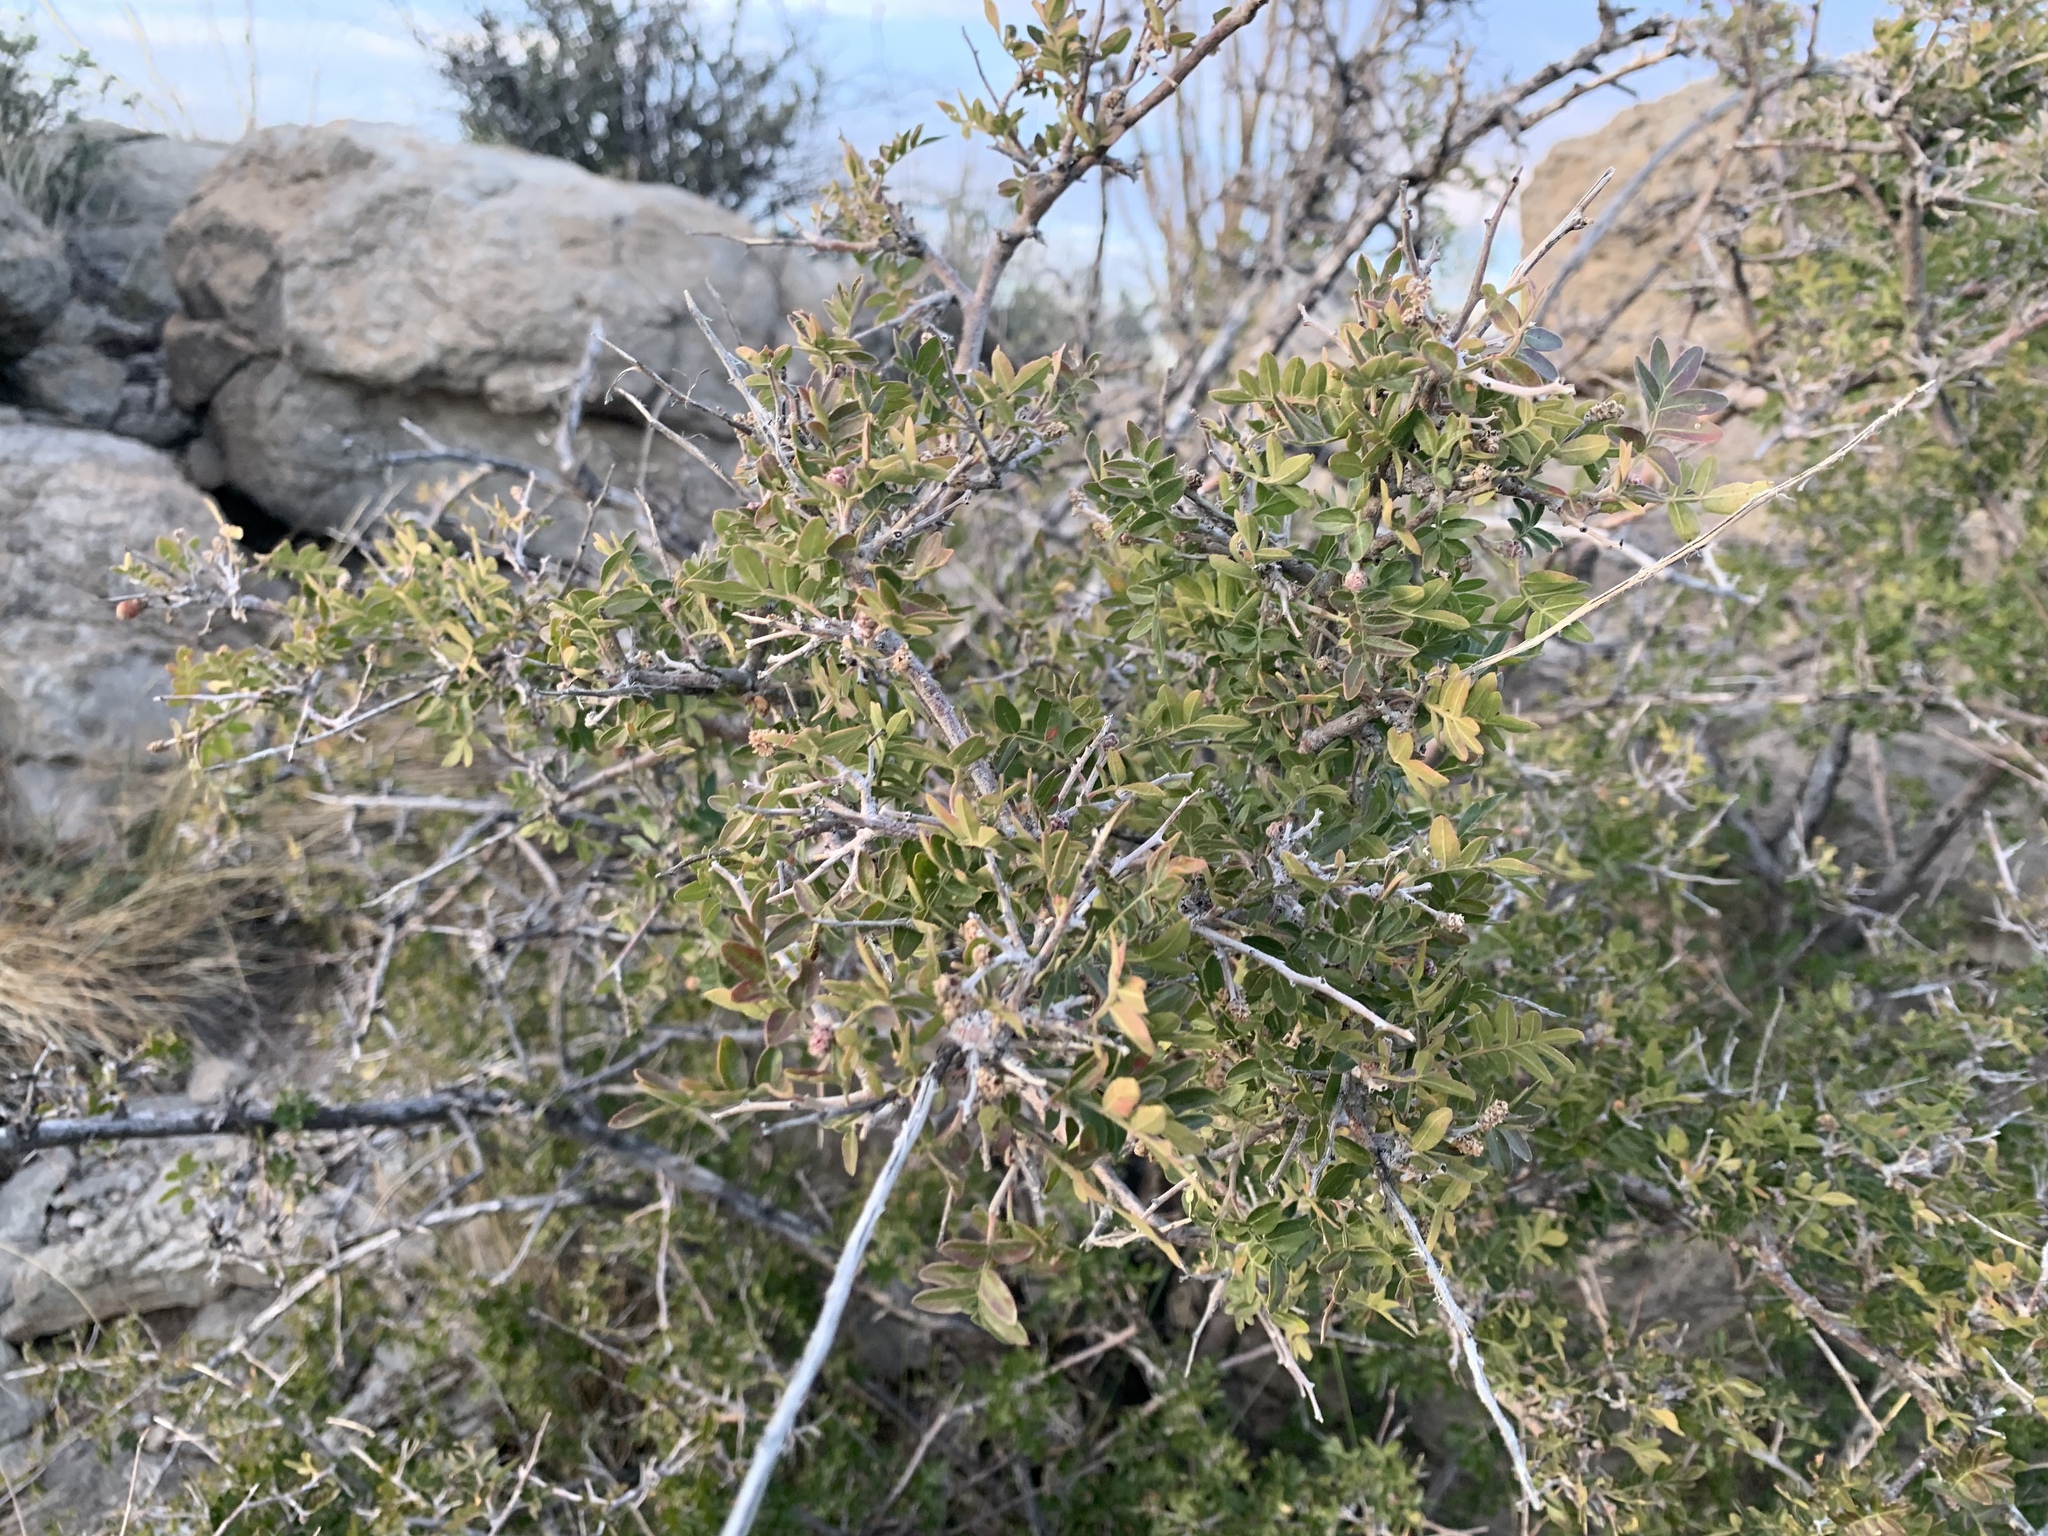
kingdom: Plantae
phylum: Tracheophyta
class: Magnoliopsida
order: Sapindales
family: Anacardiaceae
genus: Rhus
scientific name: Rhus microphylla
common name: Desert sumac
